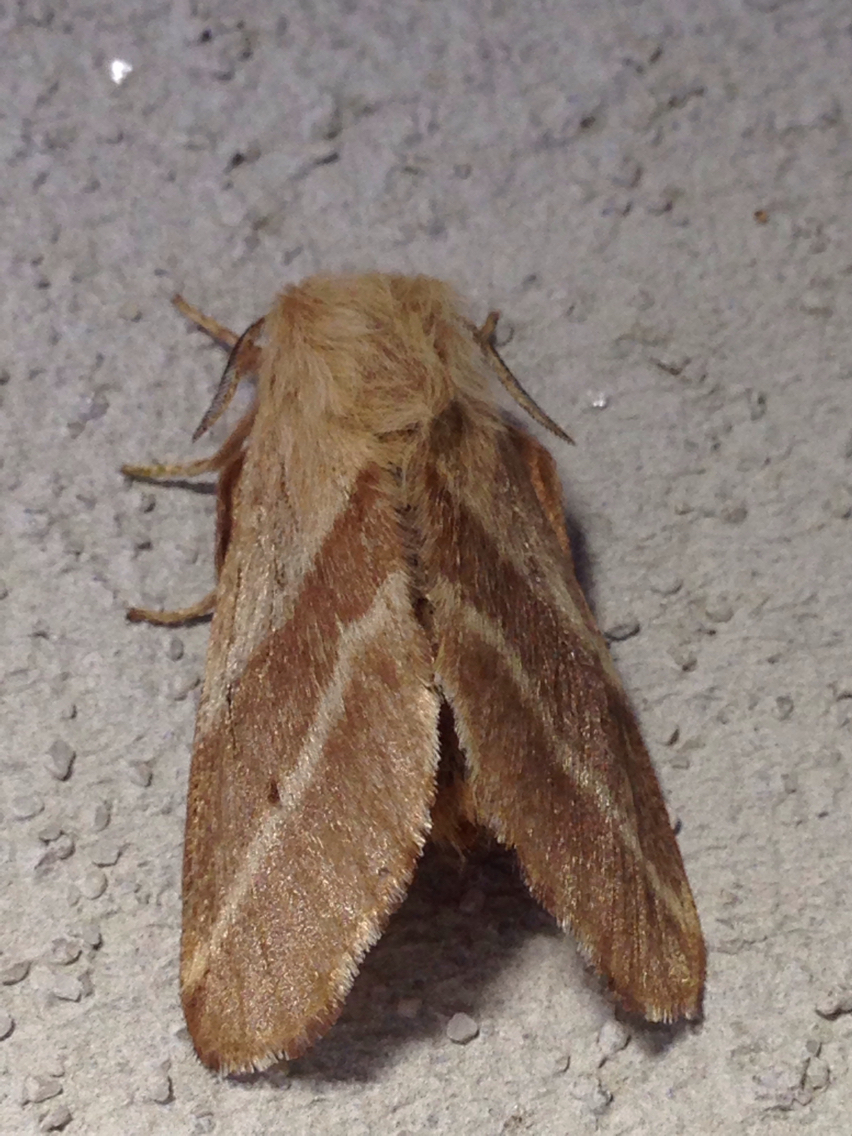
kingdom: Animalia
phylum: Arthropoda
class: Insecta
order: Lepidoptera
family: Lasiocampidae
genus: Malacosoma
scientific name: Malacosoma americana
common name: Eastern tent caterpillar moth
